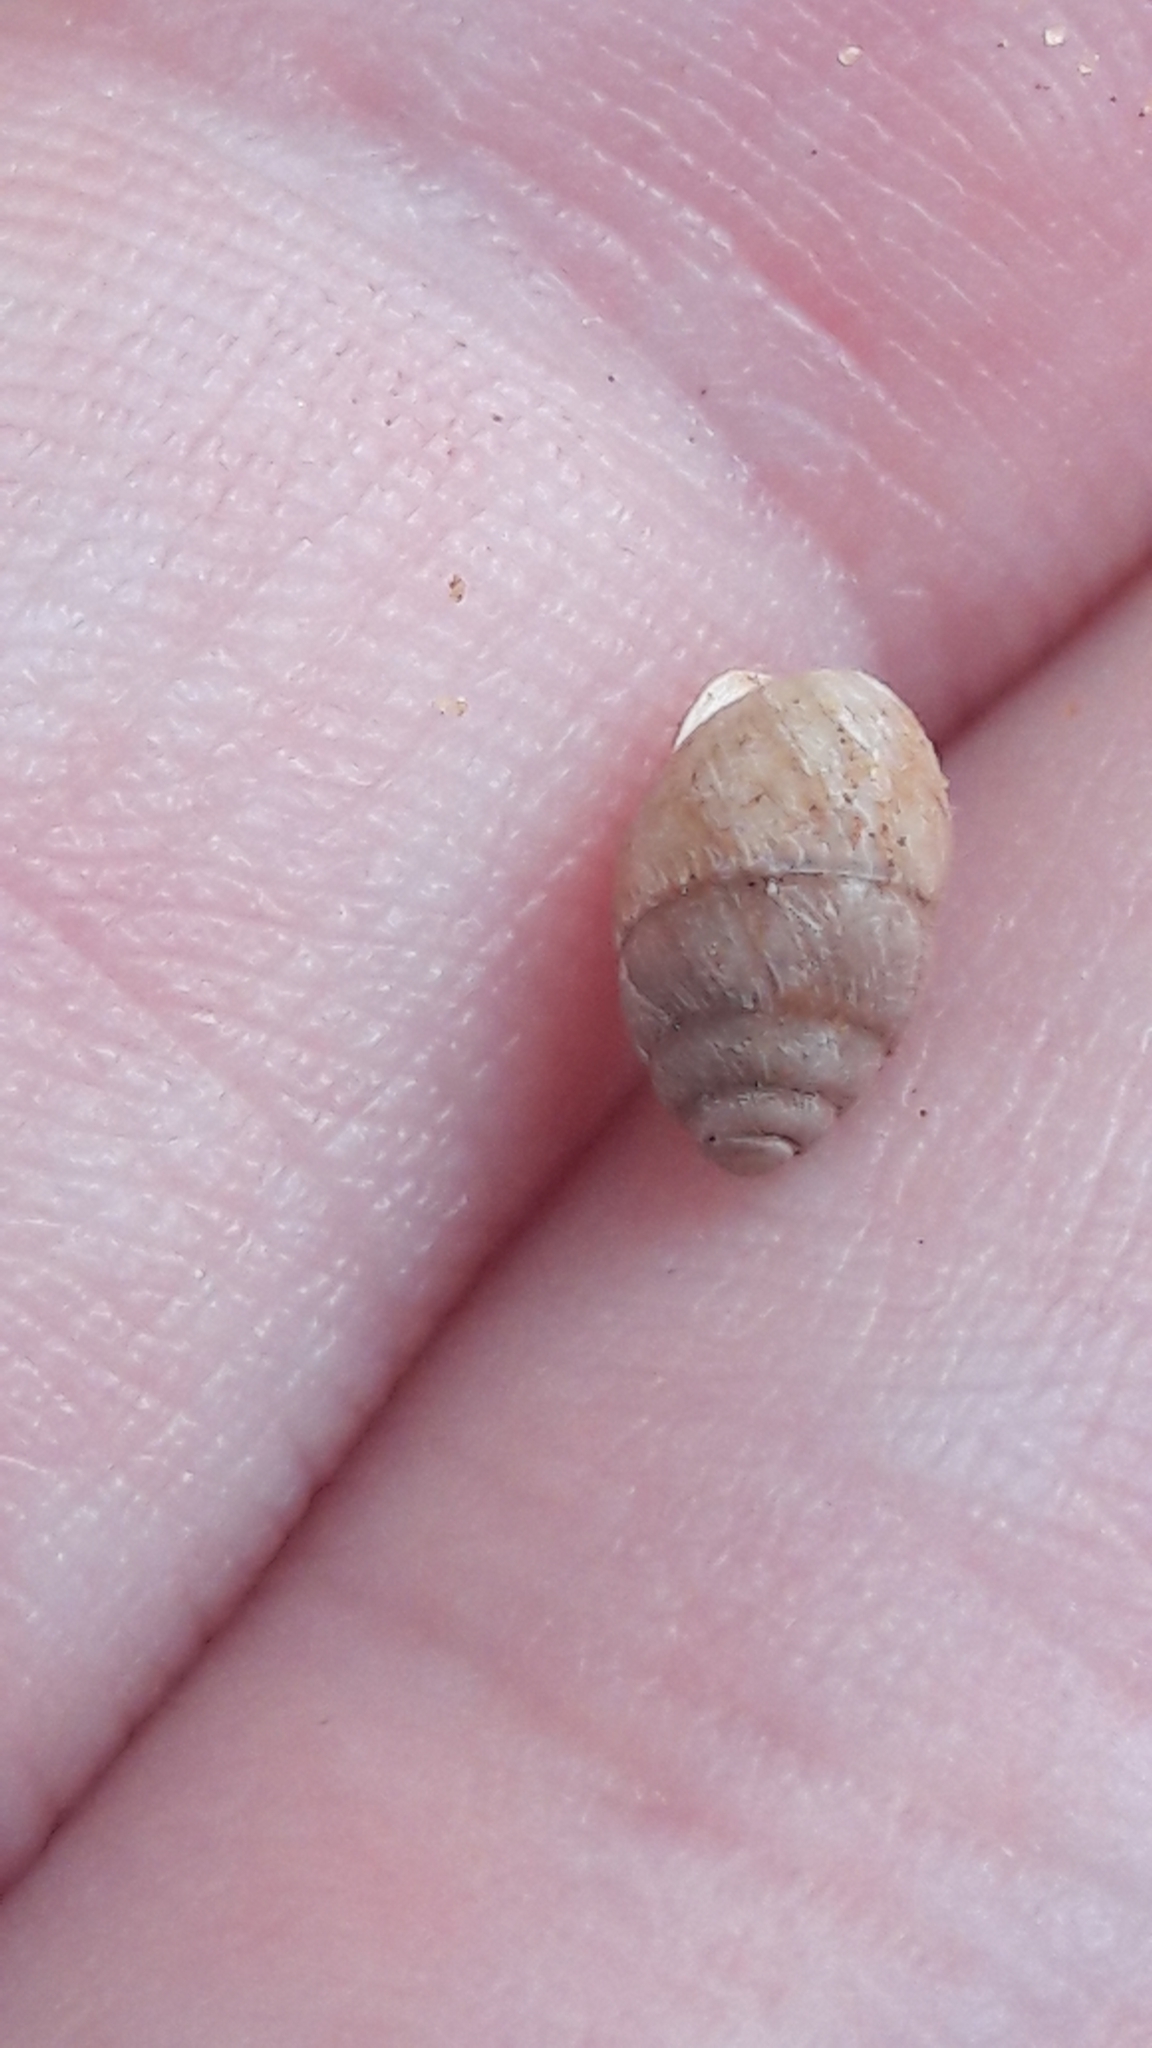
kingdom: Animalia
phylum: Mollusca
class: Gastropoda
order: Stylommatophora
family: Enidae
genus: Euchondrus
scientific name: Euchondrus septemdentatus
